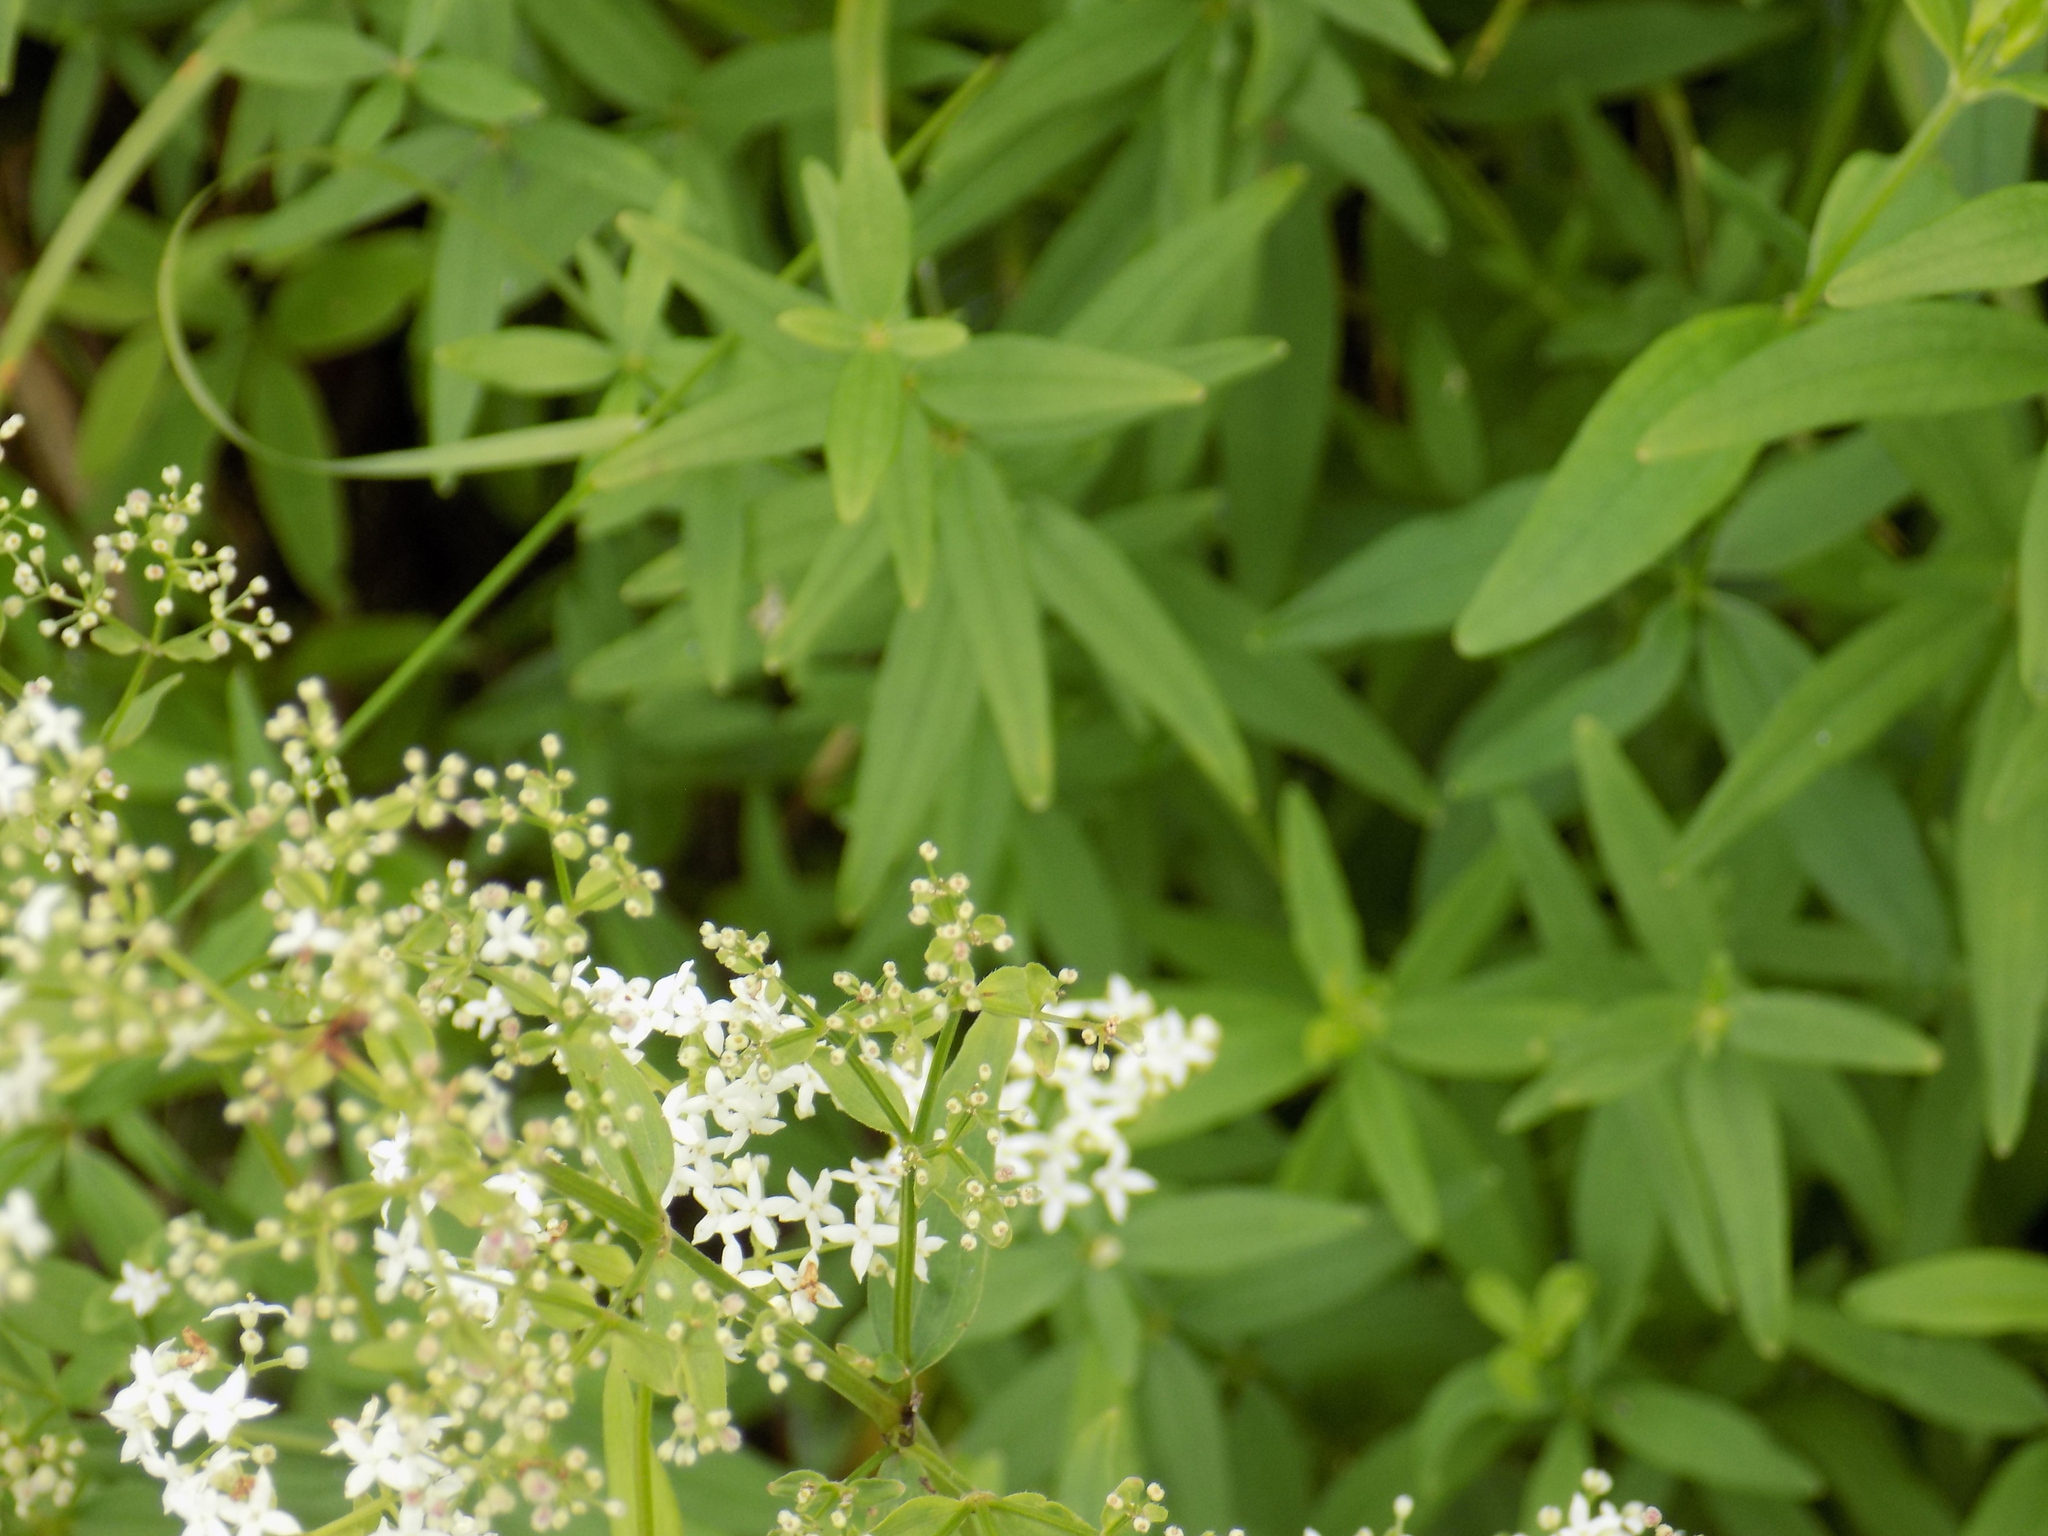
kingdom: Plantae
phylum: Tracheophyta
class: Magnoliopsida
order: Gentianales
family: Rubiaceae
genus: Galium
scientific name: Galium boreale
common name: Northern bedstraw
